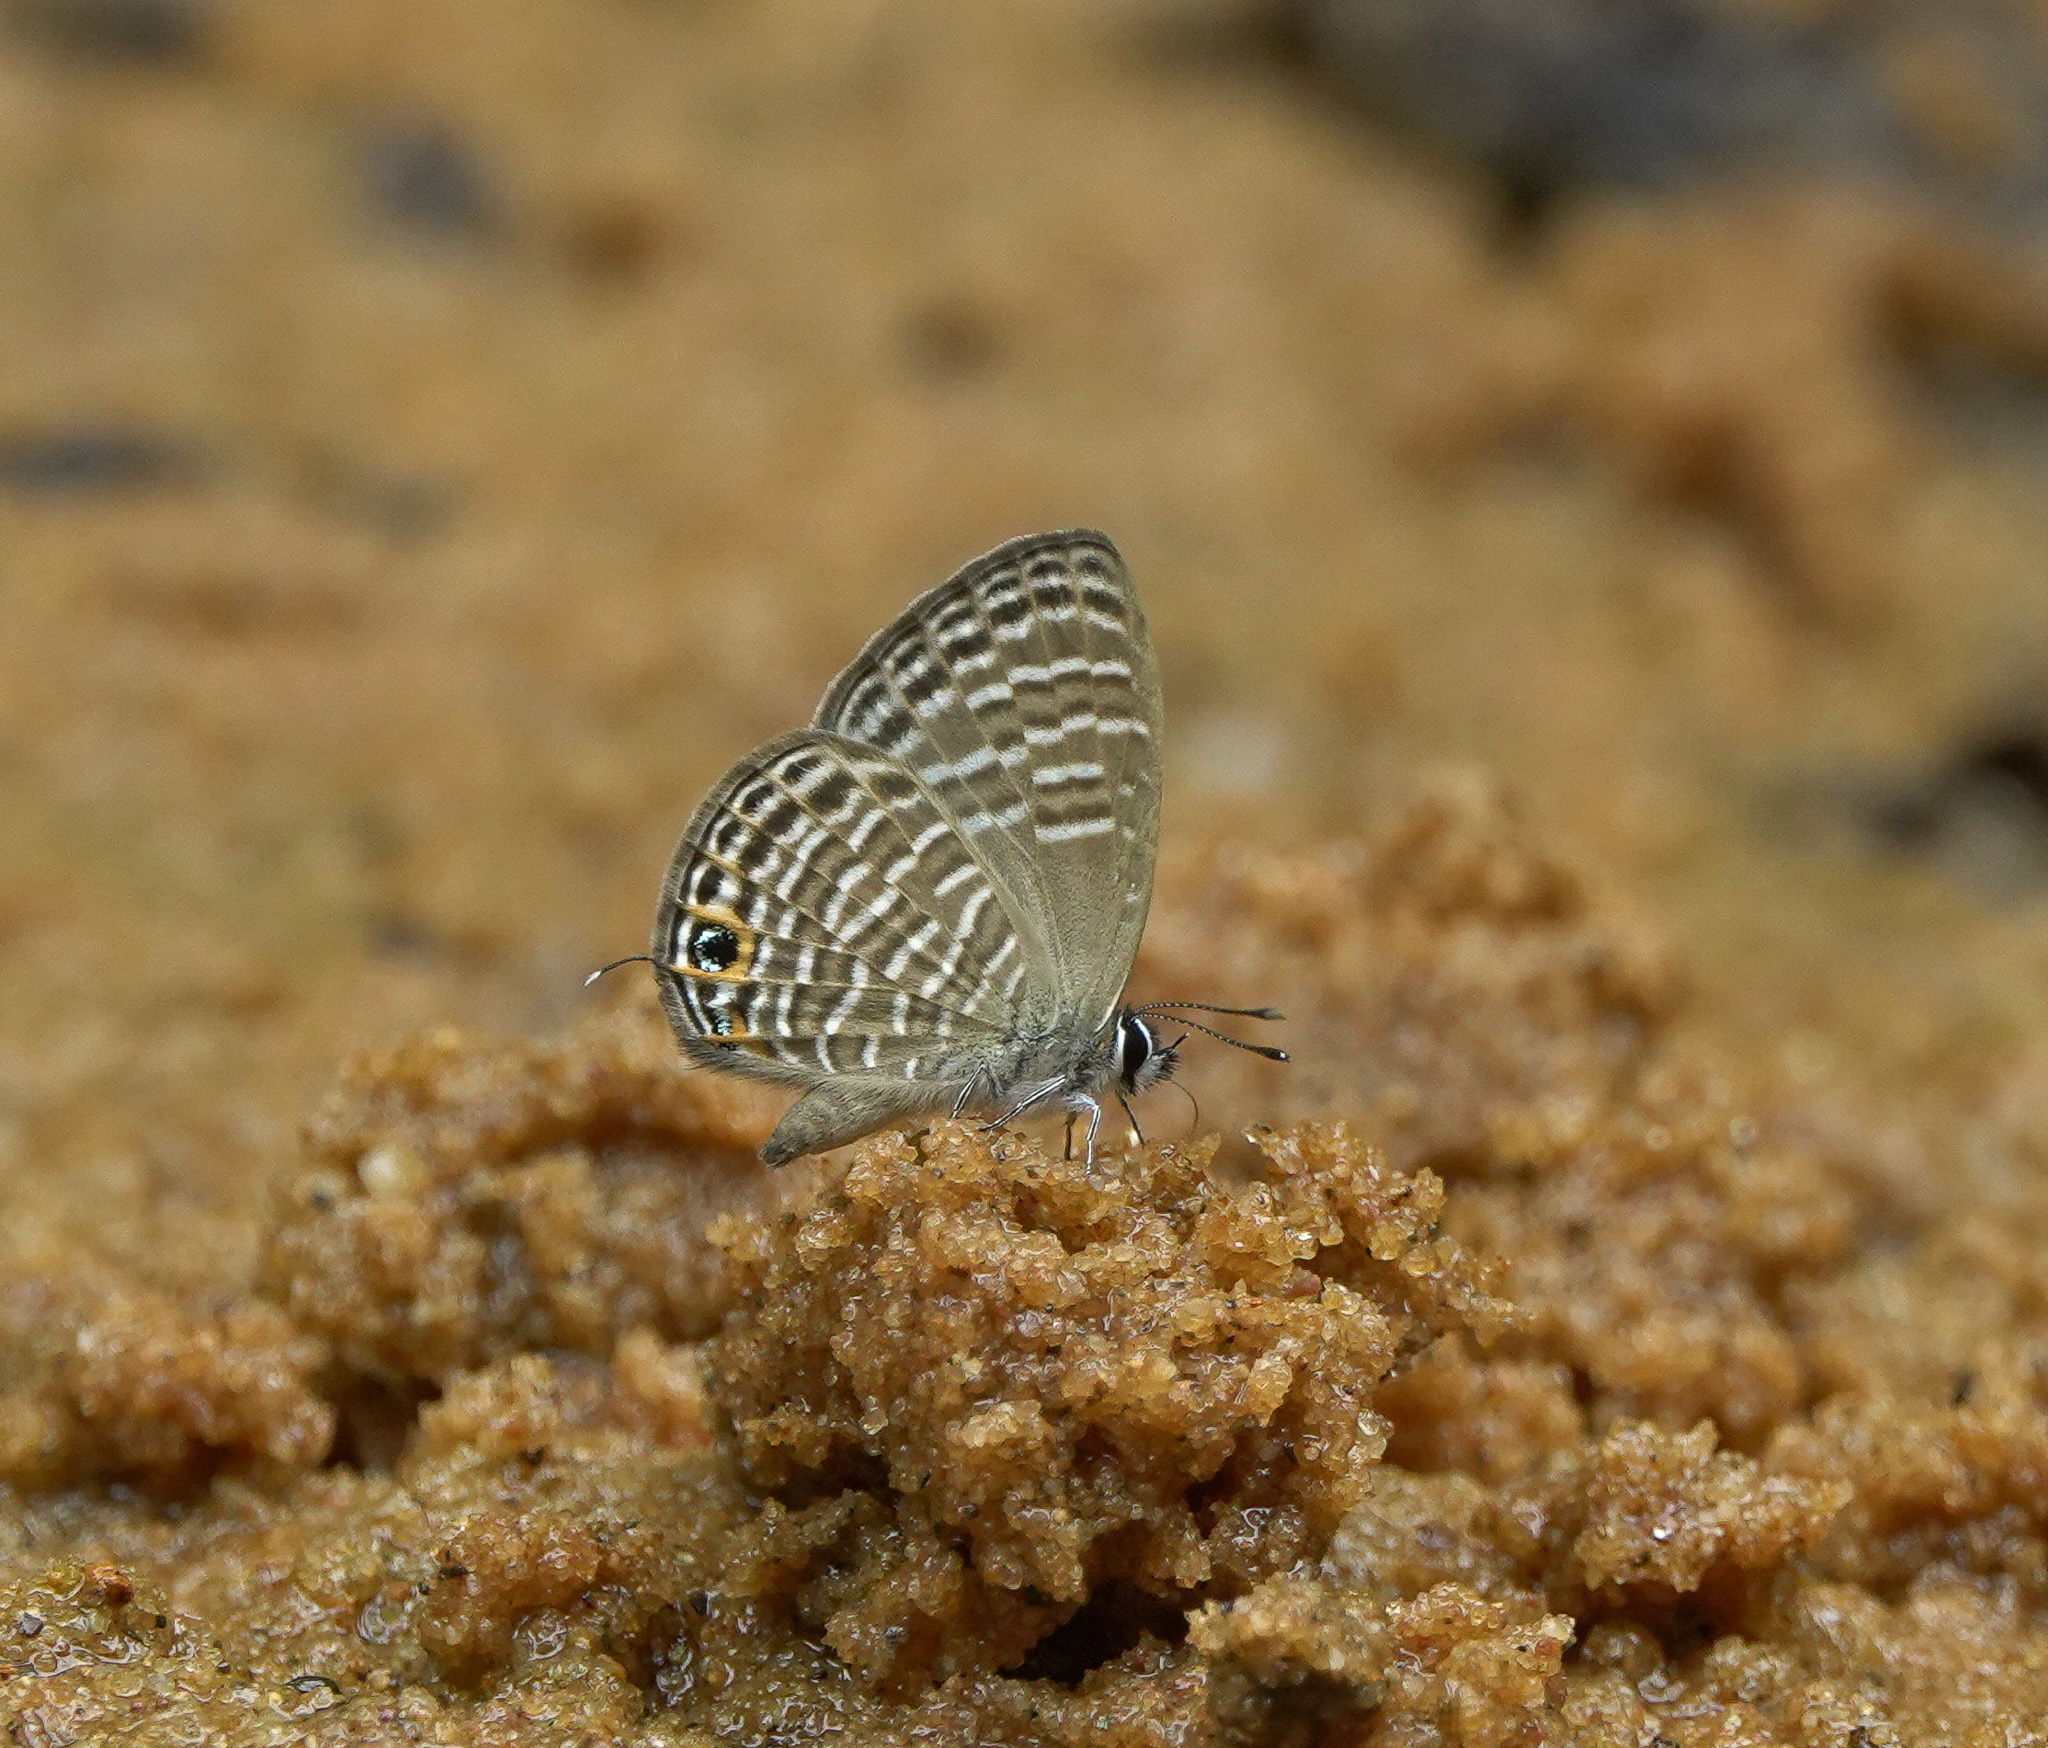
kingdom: Animalia
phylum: Arthropoda
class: Insecta
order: Lepidoptera
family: Lycaenidae
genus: Nacaduba
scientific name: Nacaduba pavana
